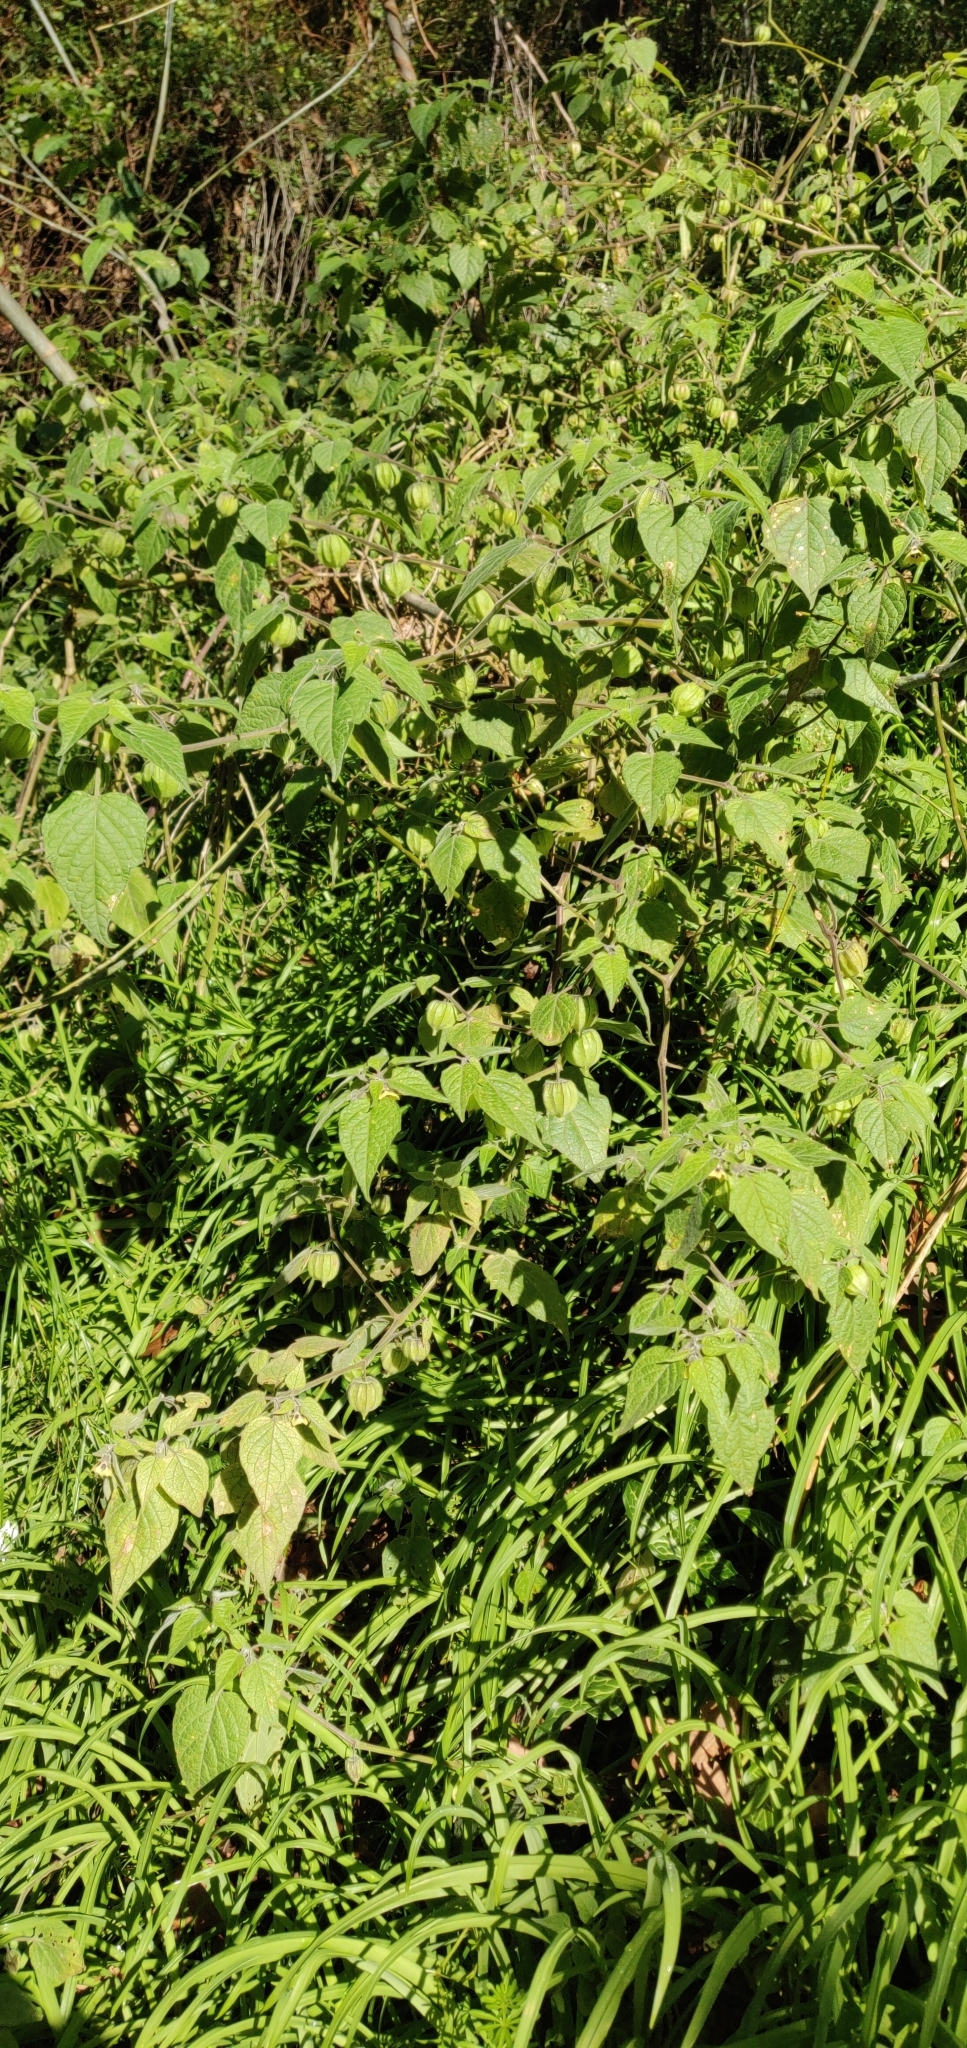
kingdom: Plantae
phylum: Tracheophyta
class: Magnoliopsida
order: Solanales
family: Solanaceae
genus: Physalis
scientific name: Physalis peruviana
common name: Cape-gooseberry
